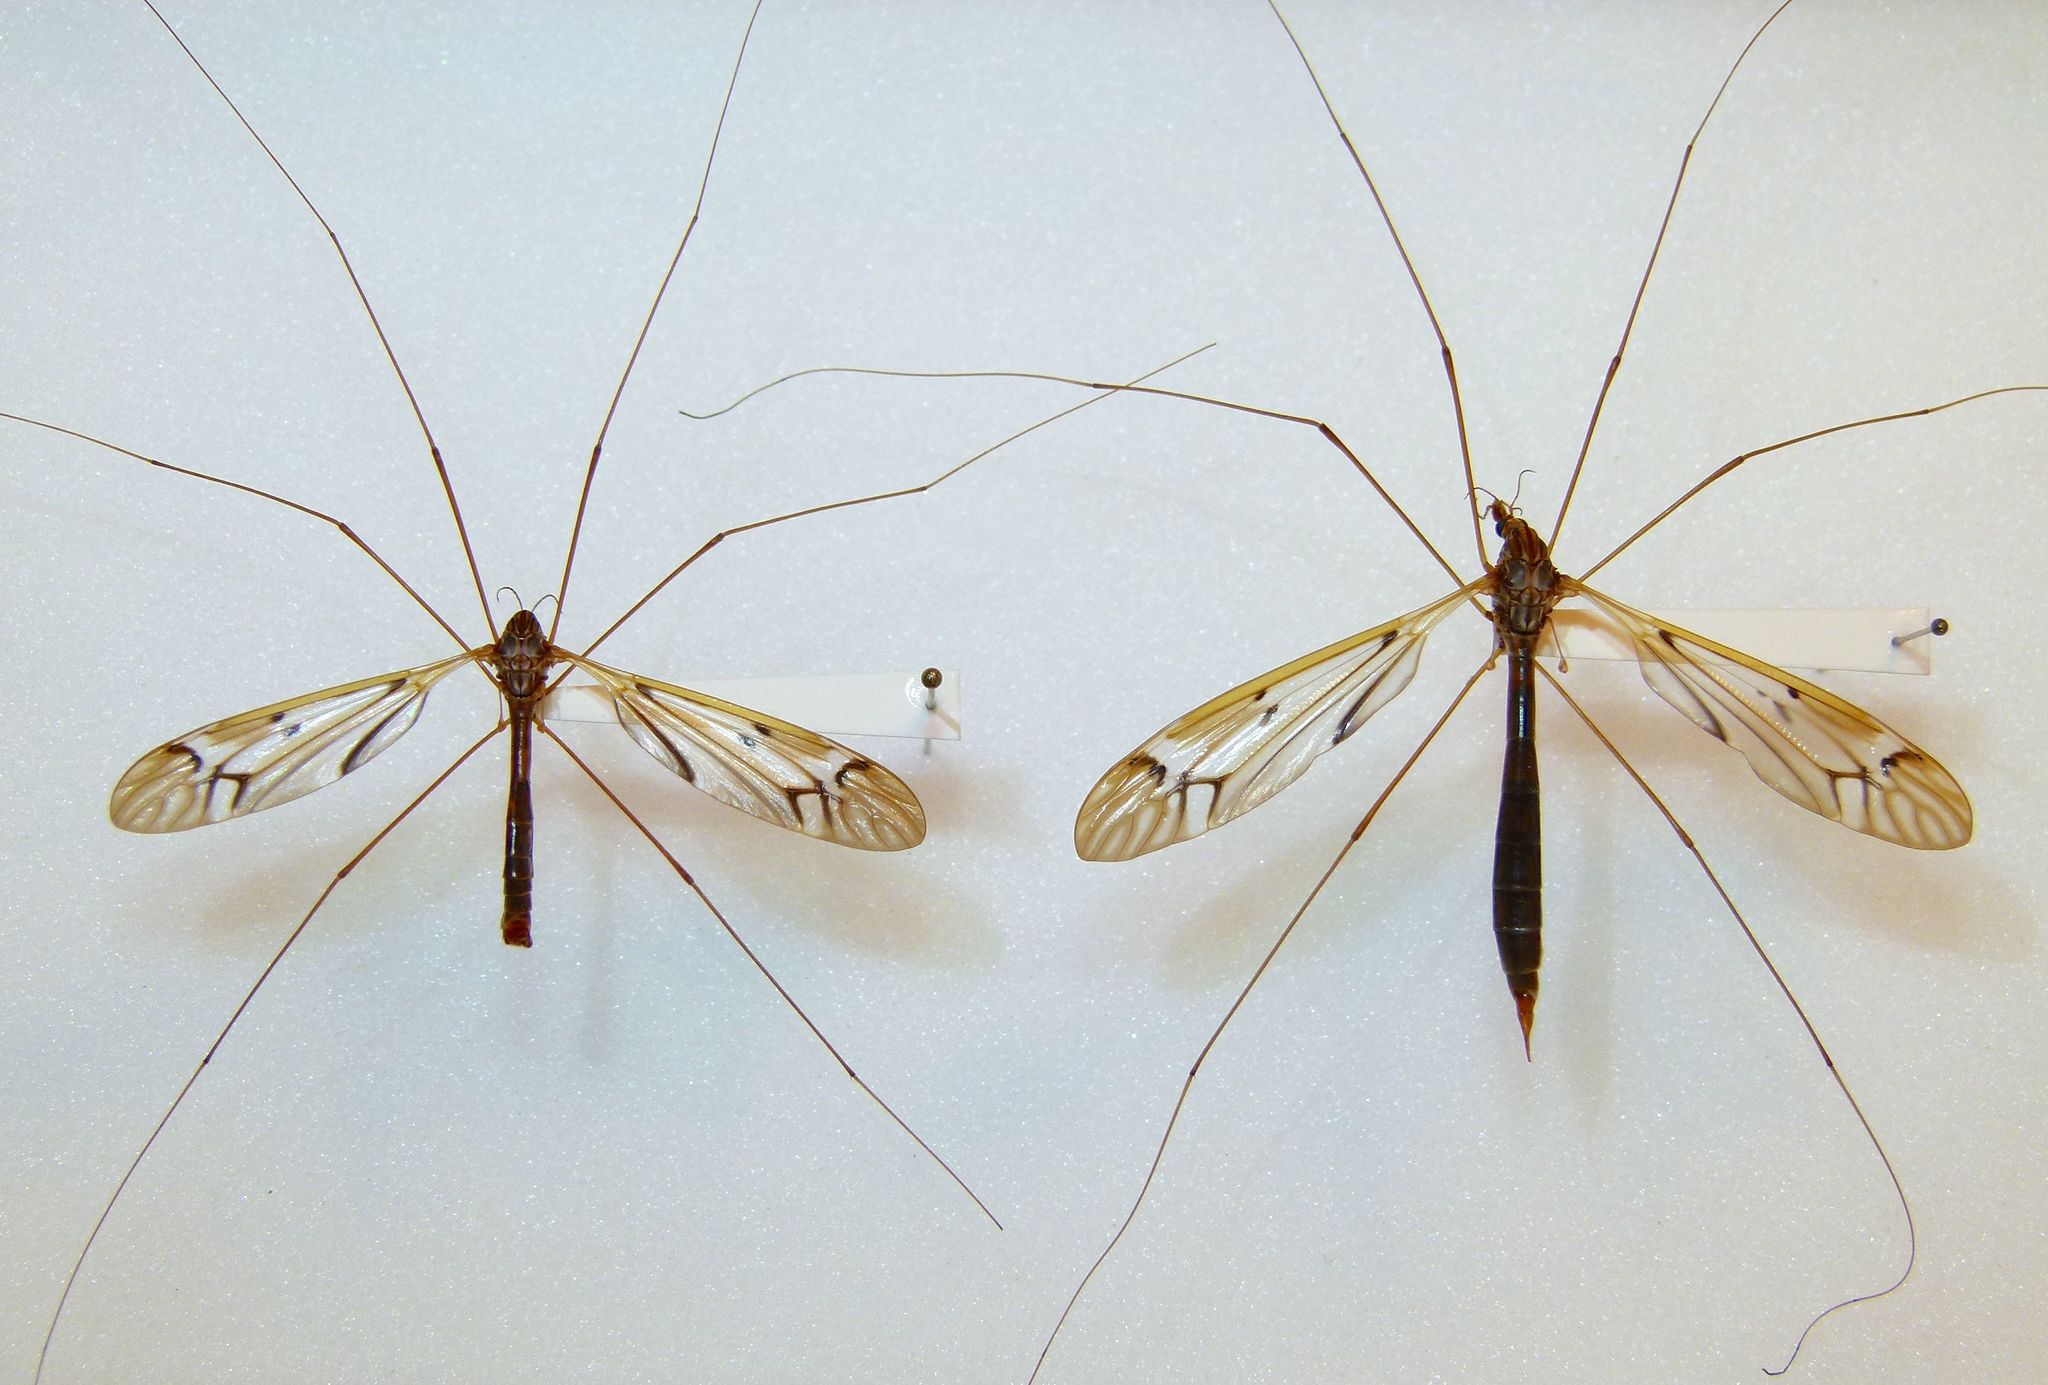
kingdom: Animalia
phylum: Arthropoda
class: Insecta
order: Diptera
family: Tipulidae
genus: Zelandotipula
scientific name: Zelandotipula fulva
